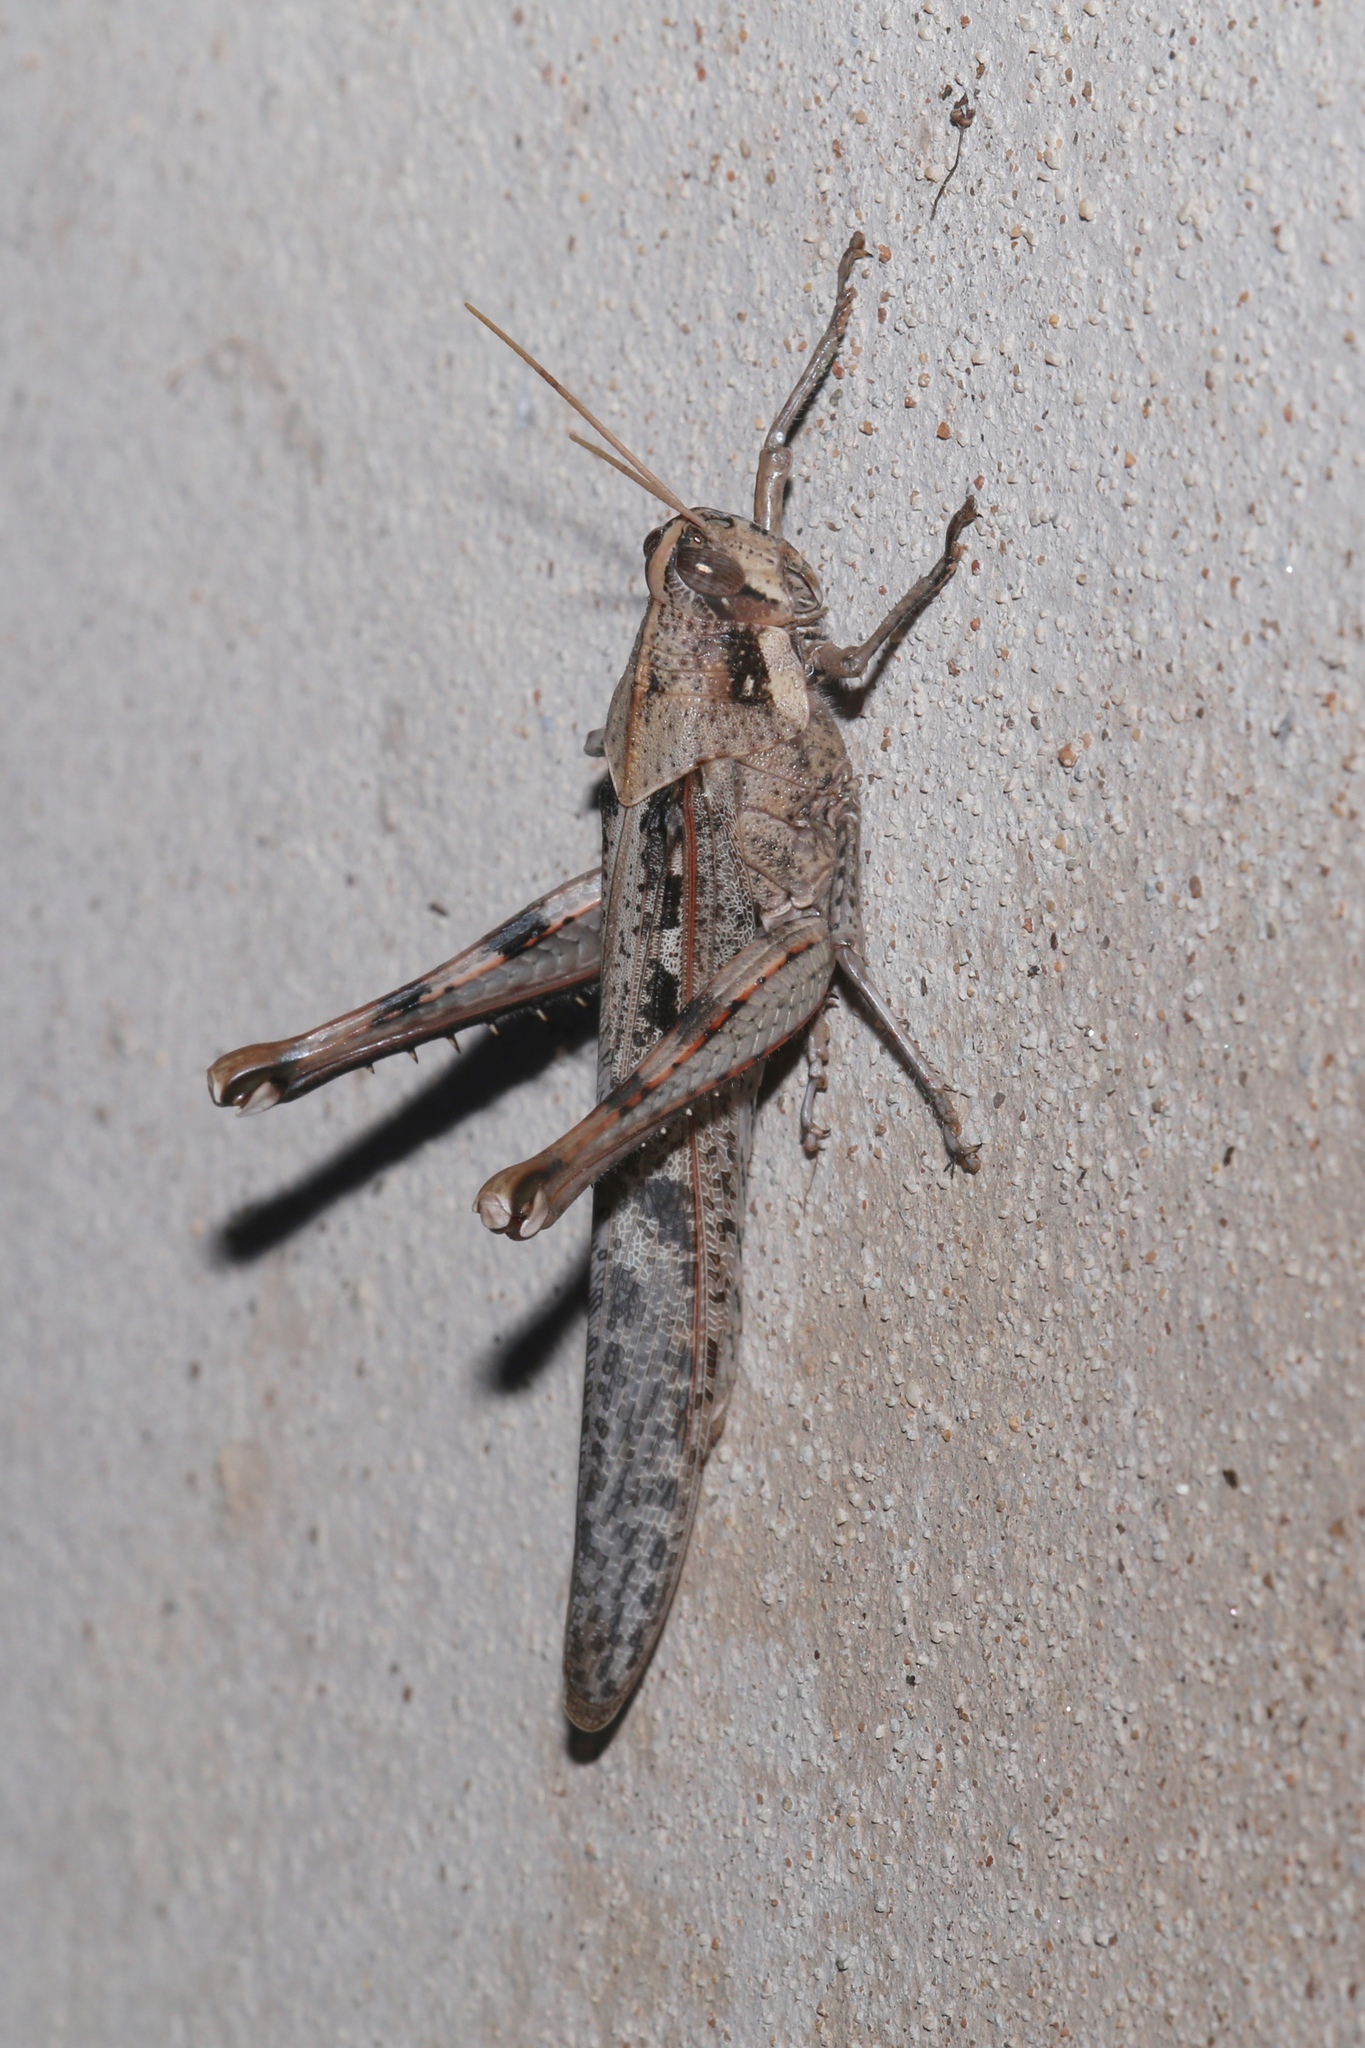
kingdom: Animalia
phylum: Arthropoda
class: Insecta
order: Orthoptera
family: Acrididae
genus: Schistocerca
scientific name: Schistocerca nitens
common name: Vagrant grasshopper
